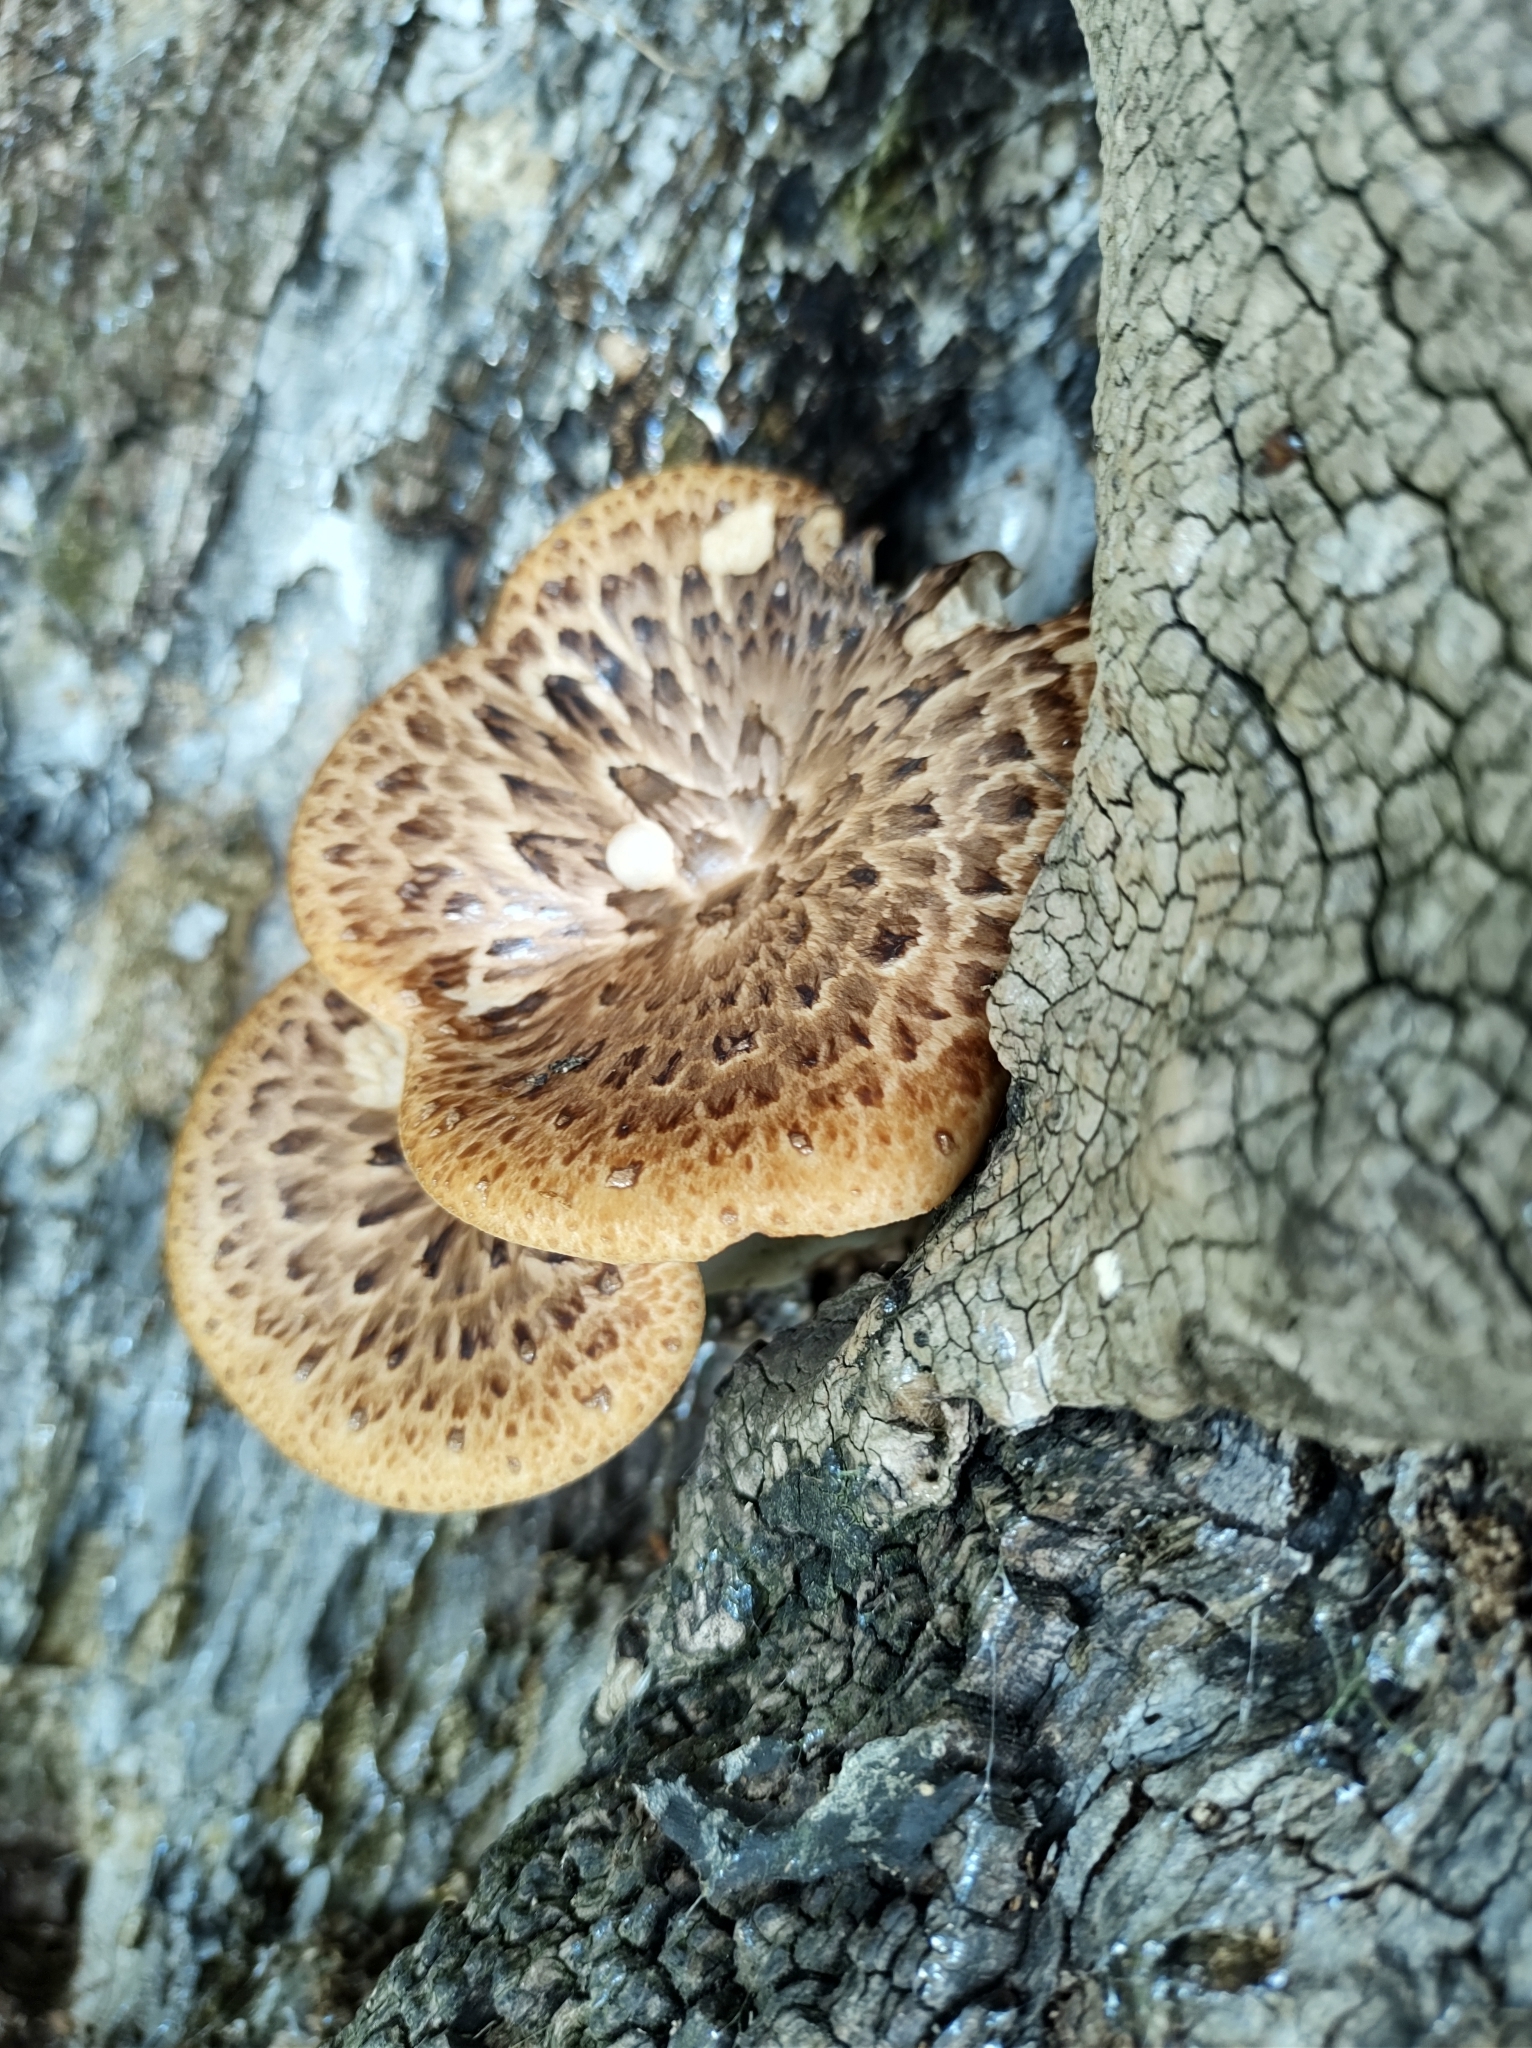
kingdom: Fungi
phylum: Basidiomycota
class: Agaricomycetes
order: Polyporales
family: Polyporaceae
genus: Cerioporus
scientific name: Cerioporus squamosus
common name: Dryad's saddle
